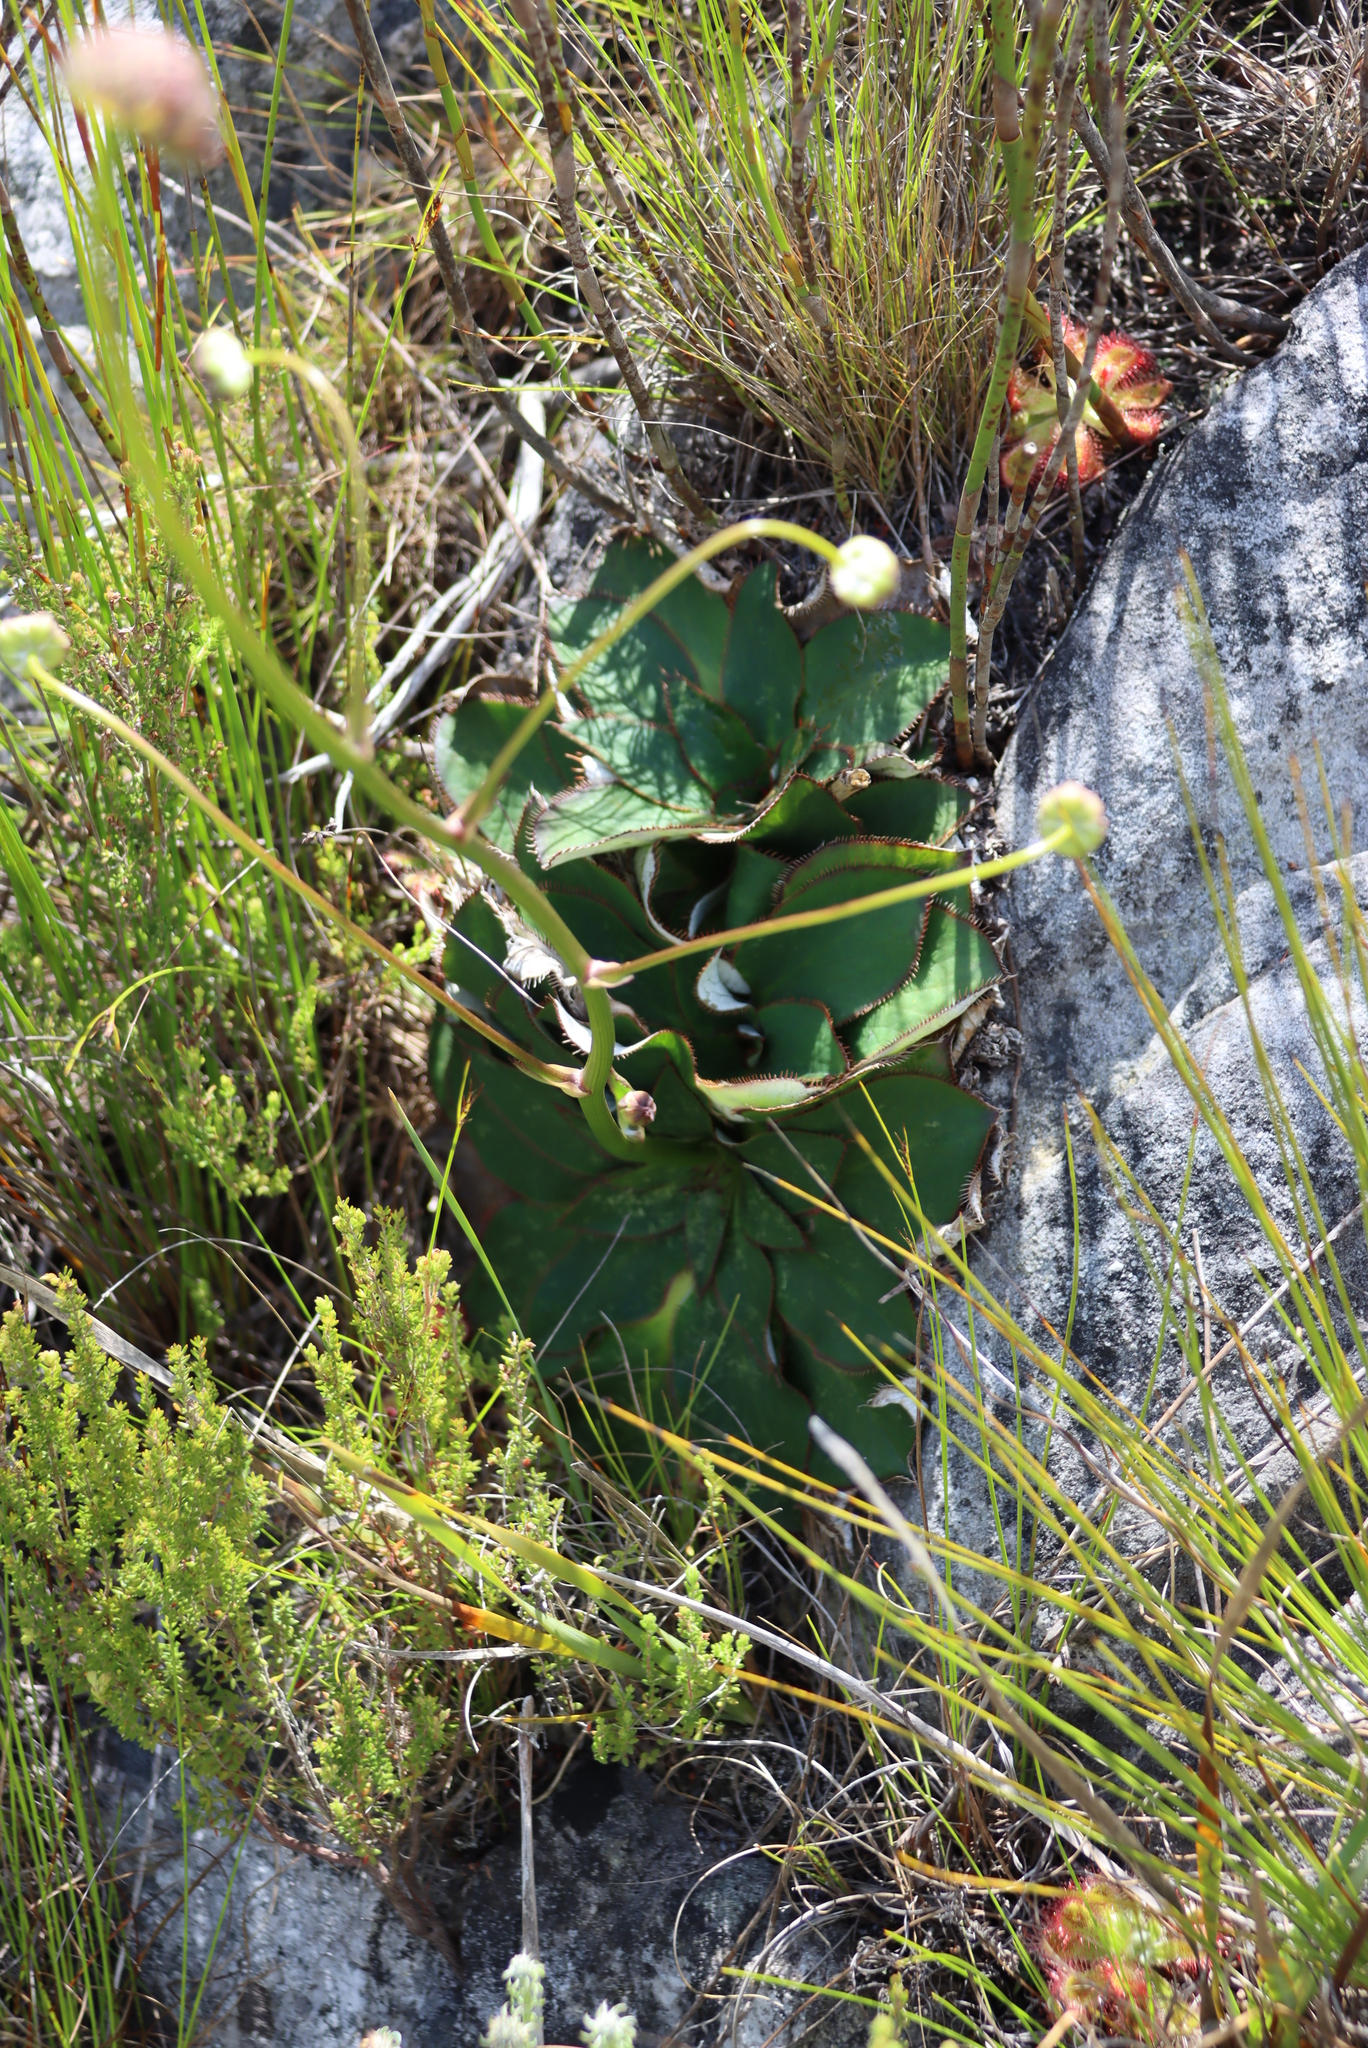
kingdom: Plantae
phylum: Tracheophyta
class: Magnoliopsida
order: Apiales
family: Apiaceae
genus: Hermas
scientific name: Hermas ciliata
